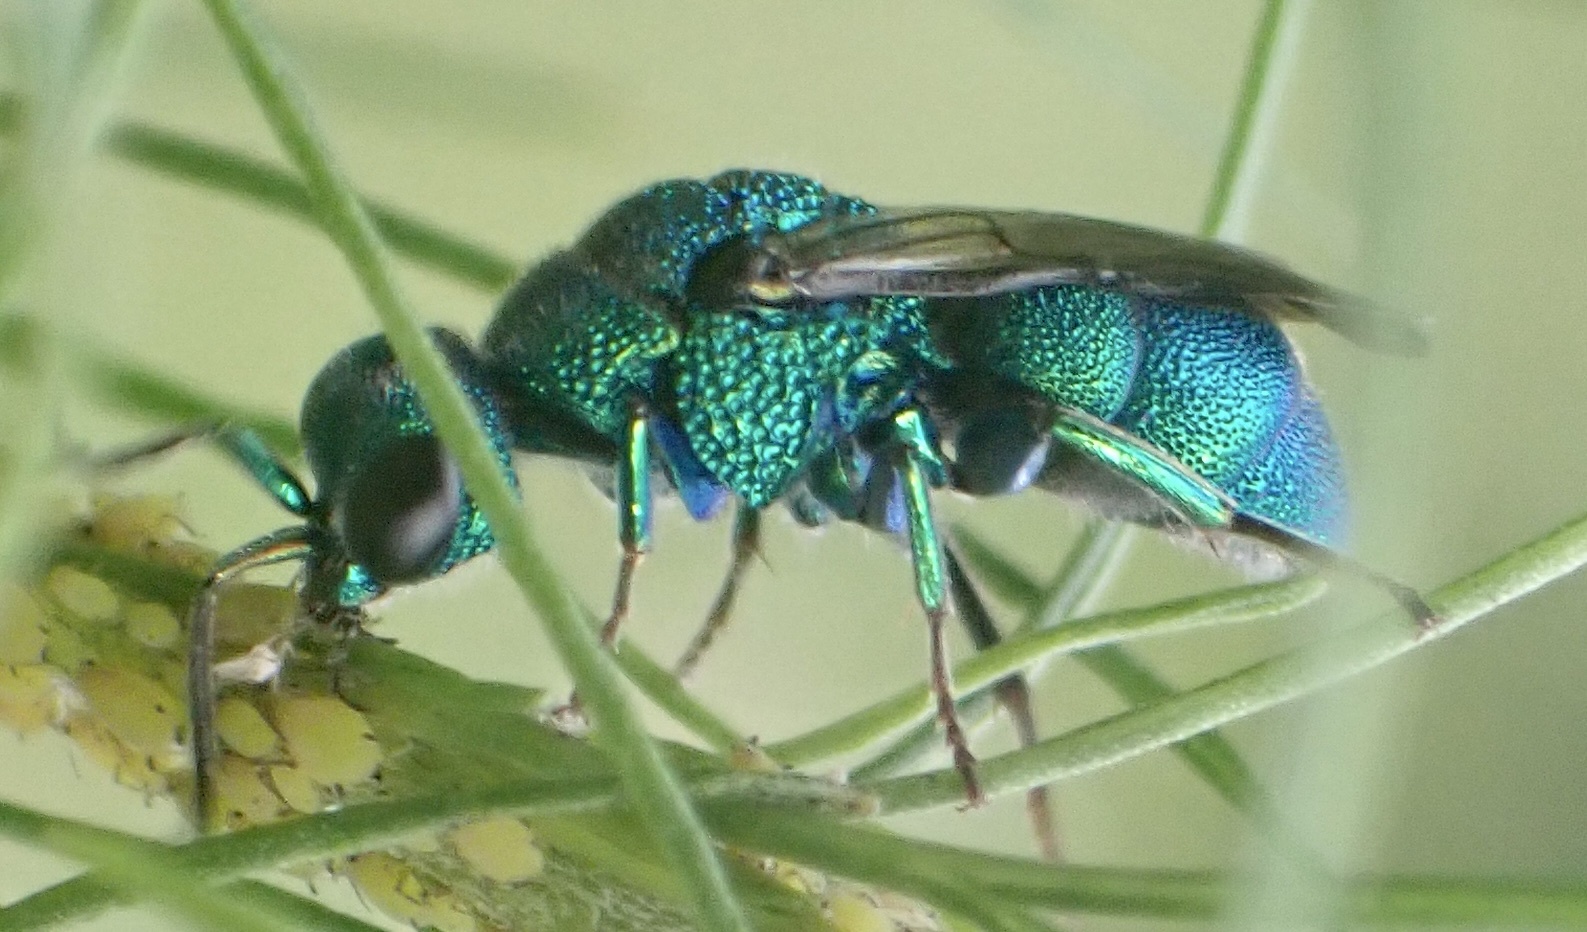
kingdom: Animalia
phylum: Arthropoda
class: Insecta
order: Hymenoptera
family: Chrysididae
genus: Holopyga
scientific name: Holopyga
